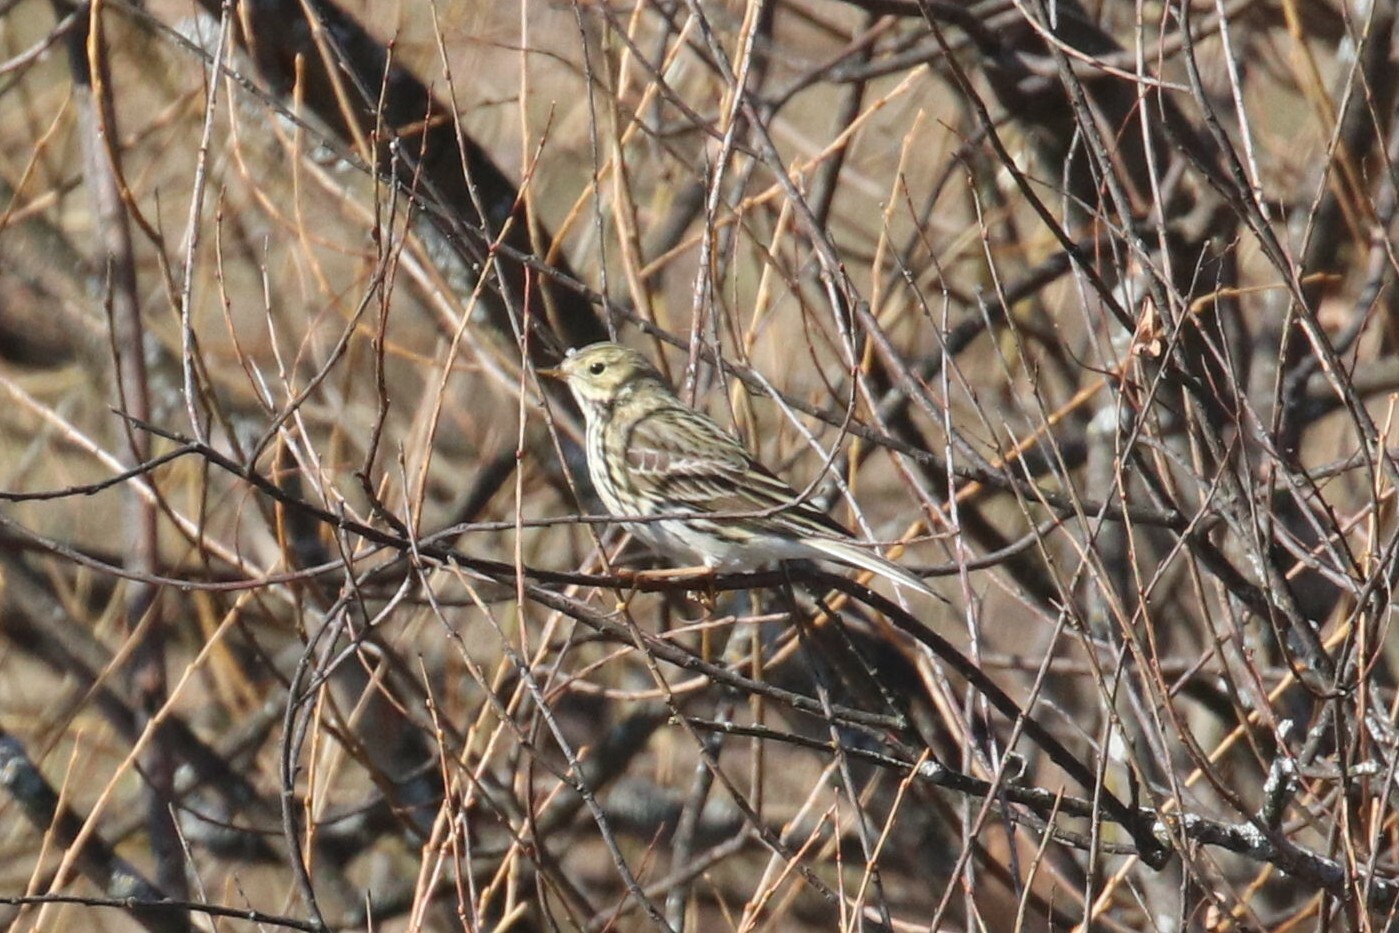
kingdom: Animalia
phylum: Chordata
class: Aves
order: Passeriformes
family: Motacillidae
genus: Anthus
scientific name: Anthus pratensis
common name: Meadow pipit
